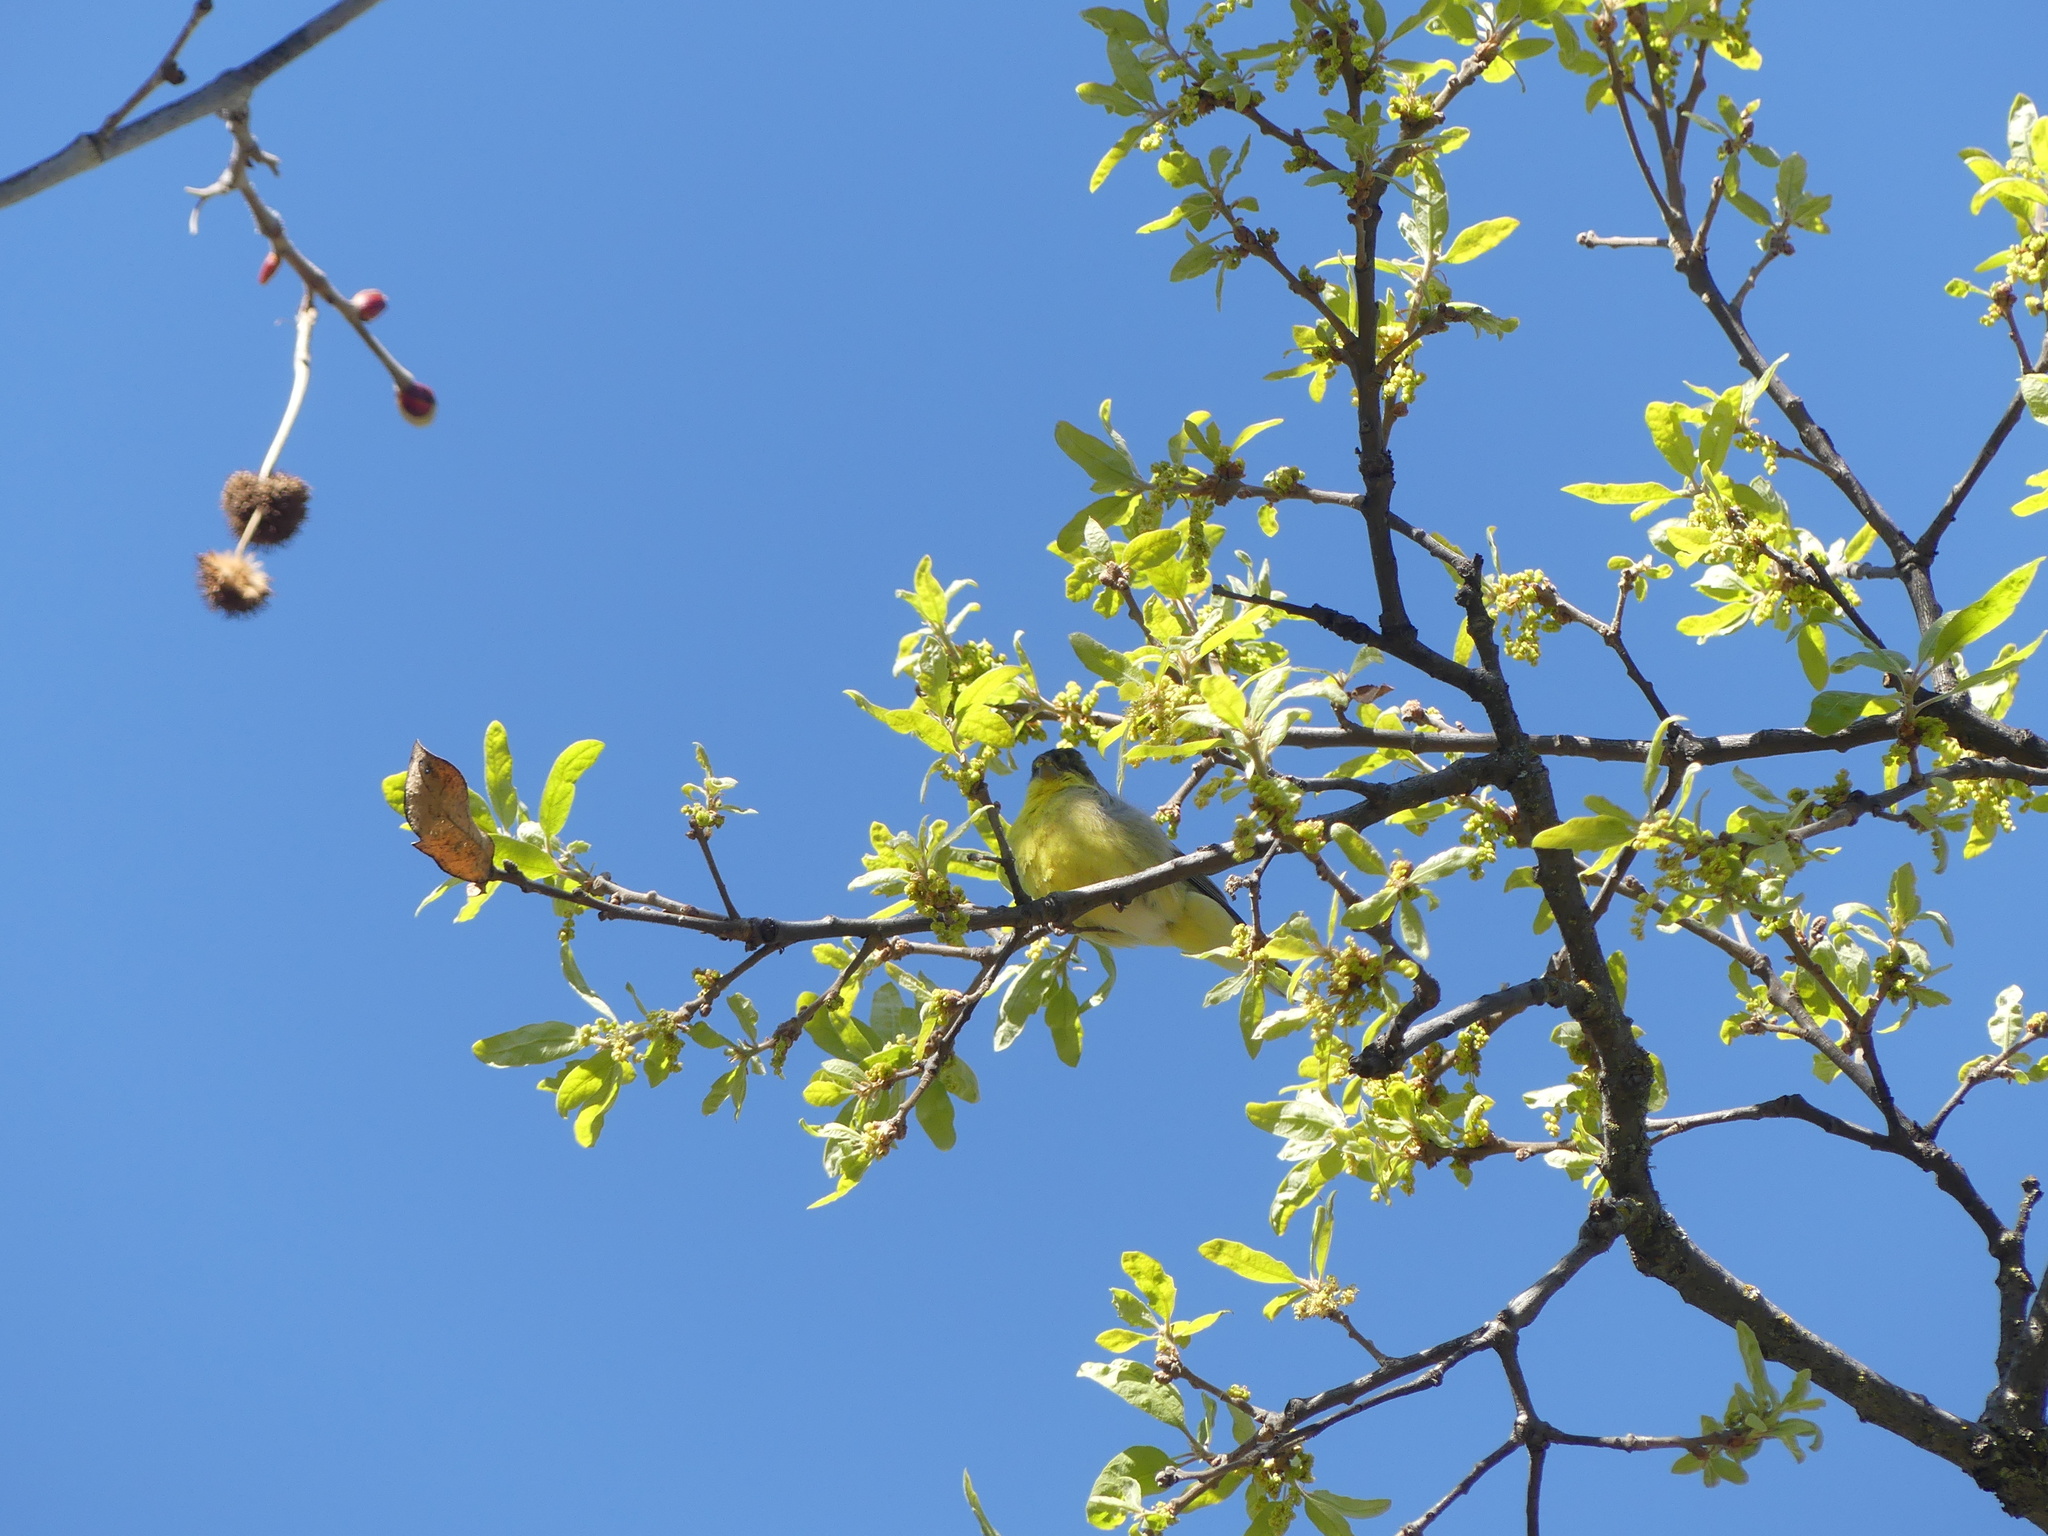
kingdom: Animalia
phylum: Chordata
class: Aves
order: Passeriformes
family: Fringillidae
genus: Spinus
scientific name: Spinus psaltria
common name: Lesser goldfinch
